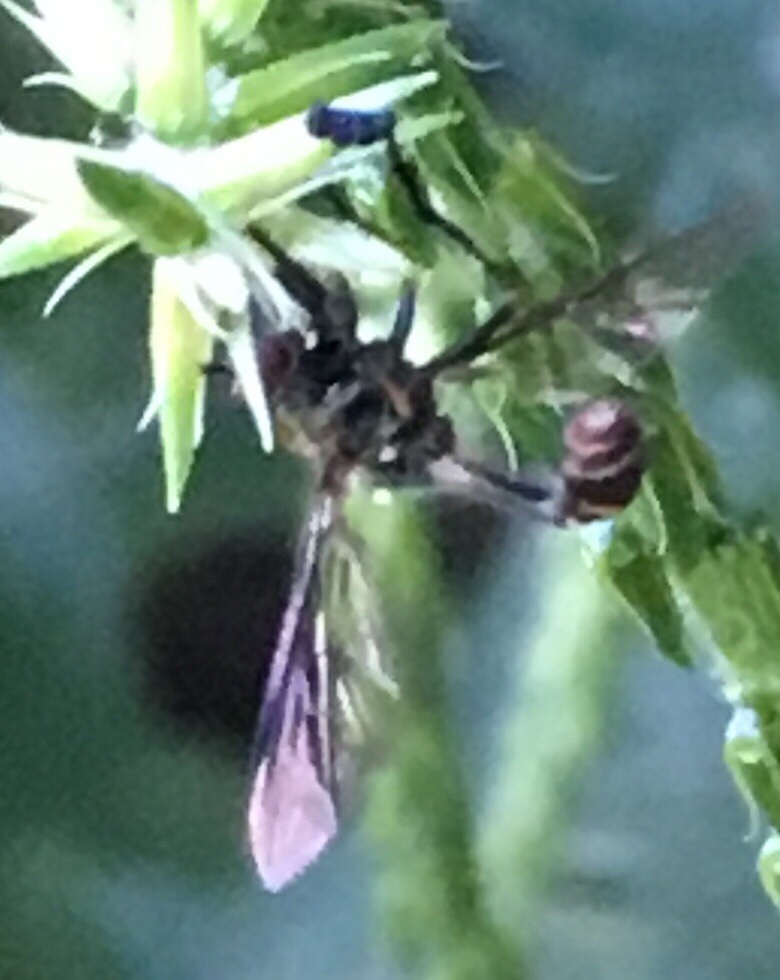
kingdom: Animalia
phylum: Arthropoda
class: Insecta
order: Diptera
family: Syrphidae
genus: Ocyptamus
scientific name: Ocyptamus costatus
